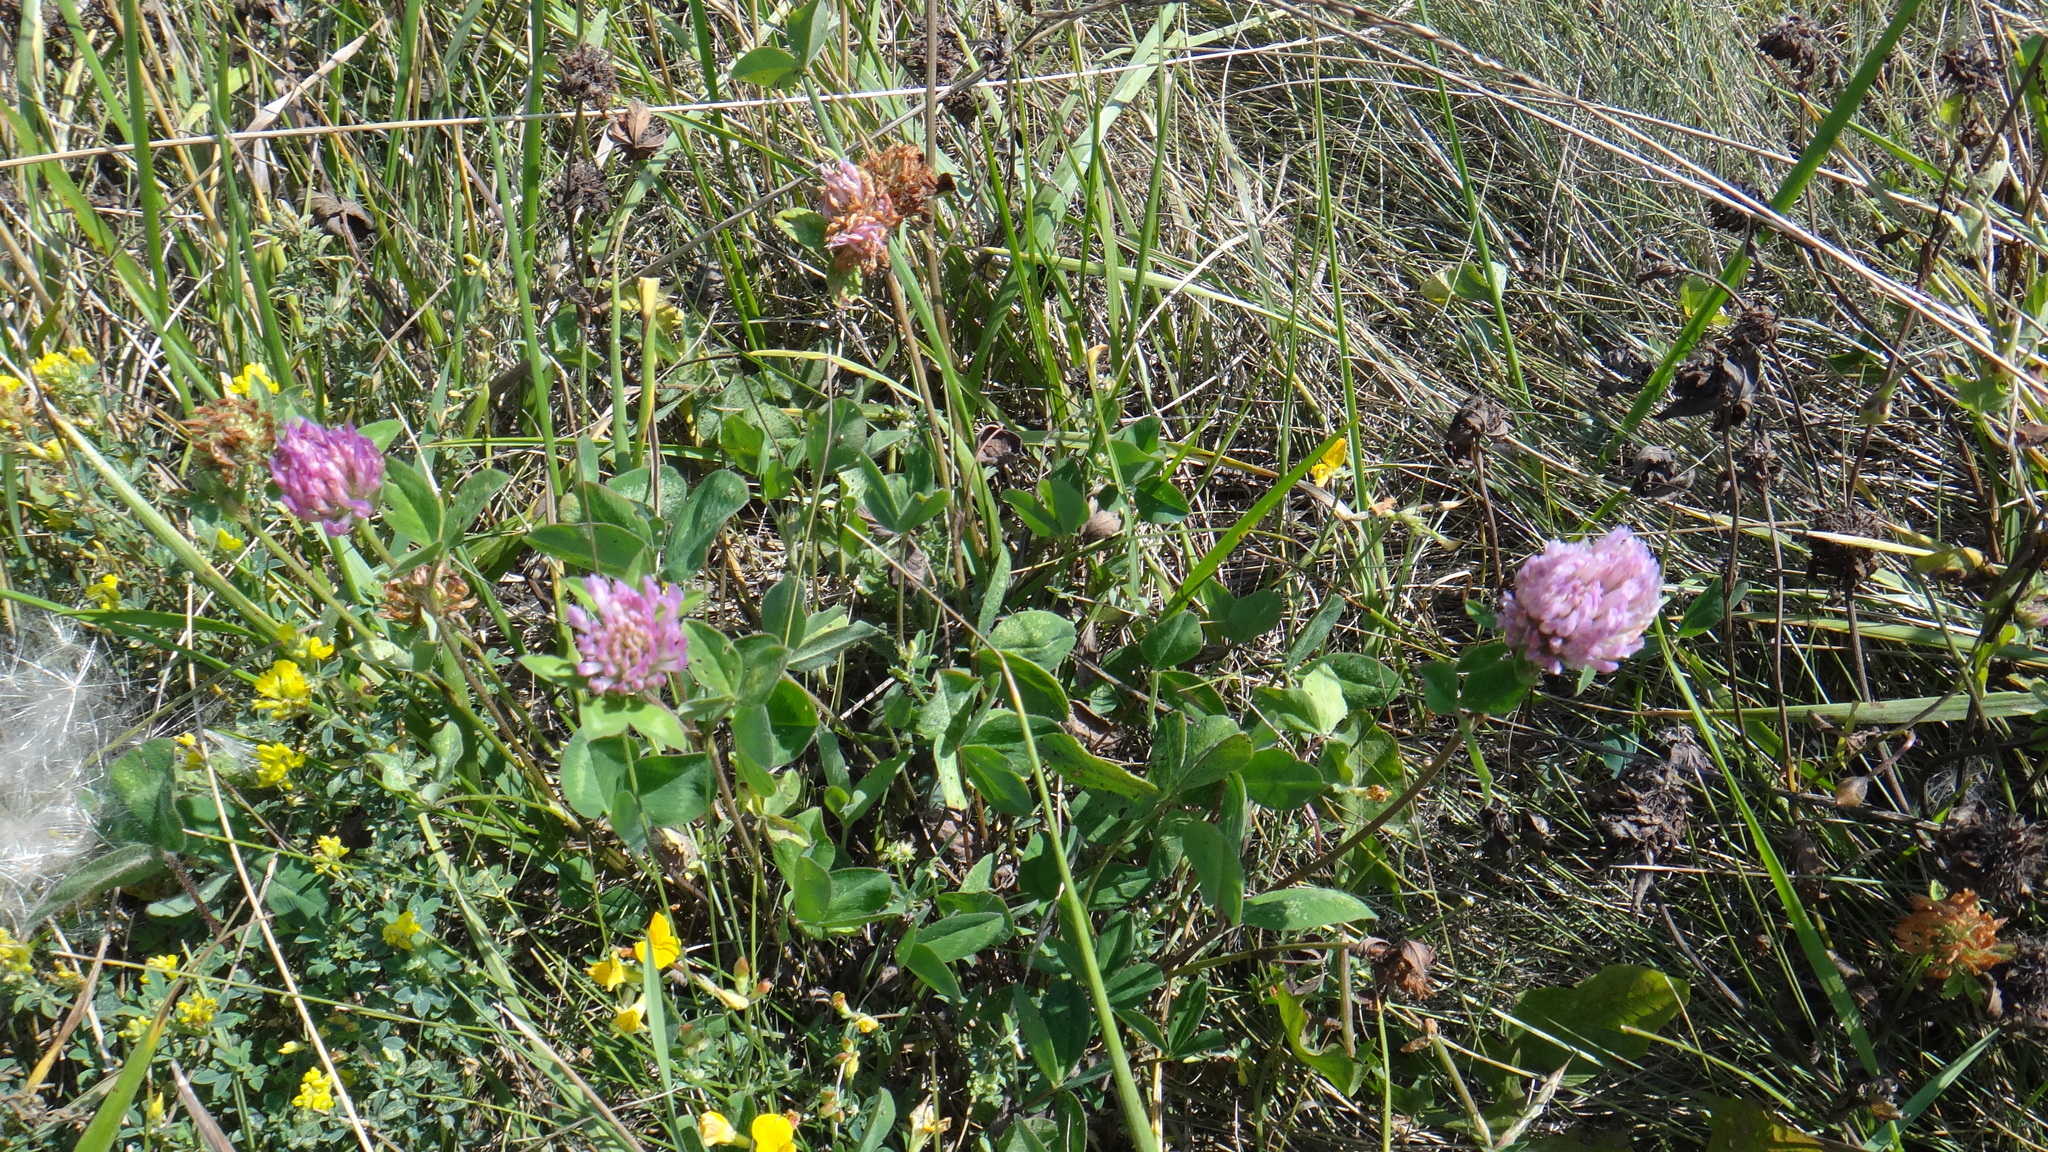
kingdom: Plantae
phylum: Tracheophyta
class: Magnoliopsida
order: Fabales
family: Fabaceae
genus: Trifolium
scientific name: Trifolium pratense
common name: Red clover
